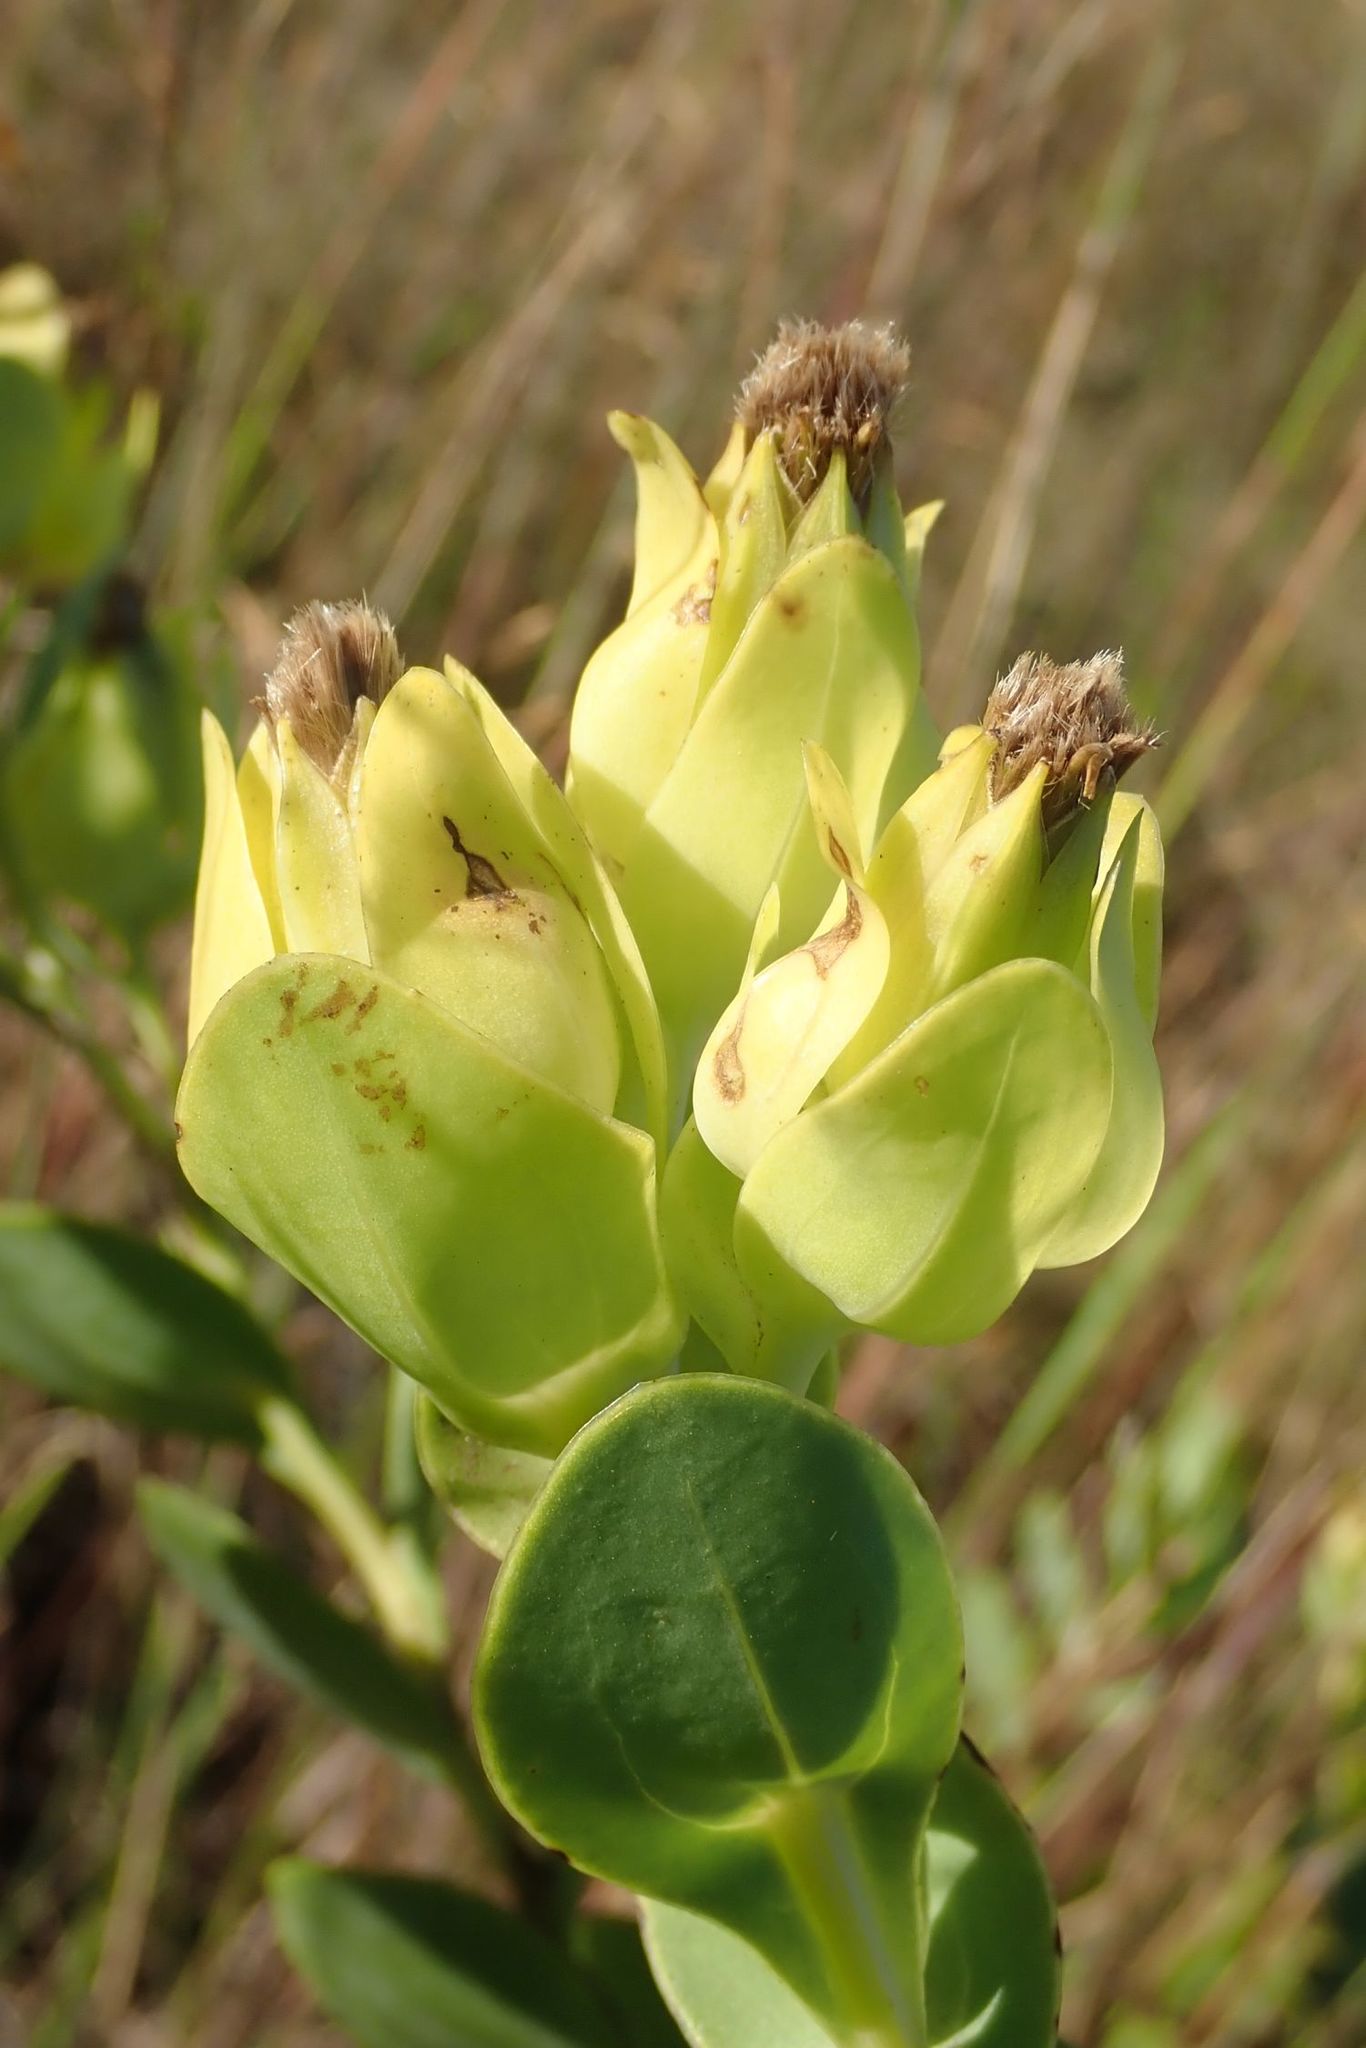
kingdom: Plantae
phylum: Tracheophyta
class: Magnoliopsida
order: Asterales
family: Asteraceae
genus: Lopholaena
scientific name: Lopholaena disticha
